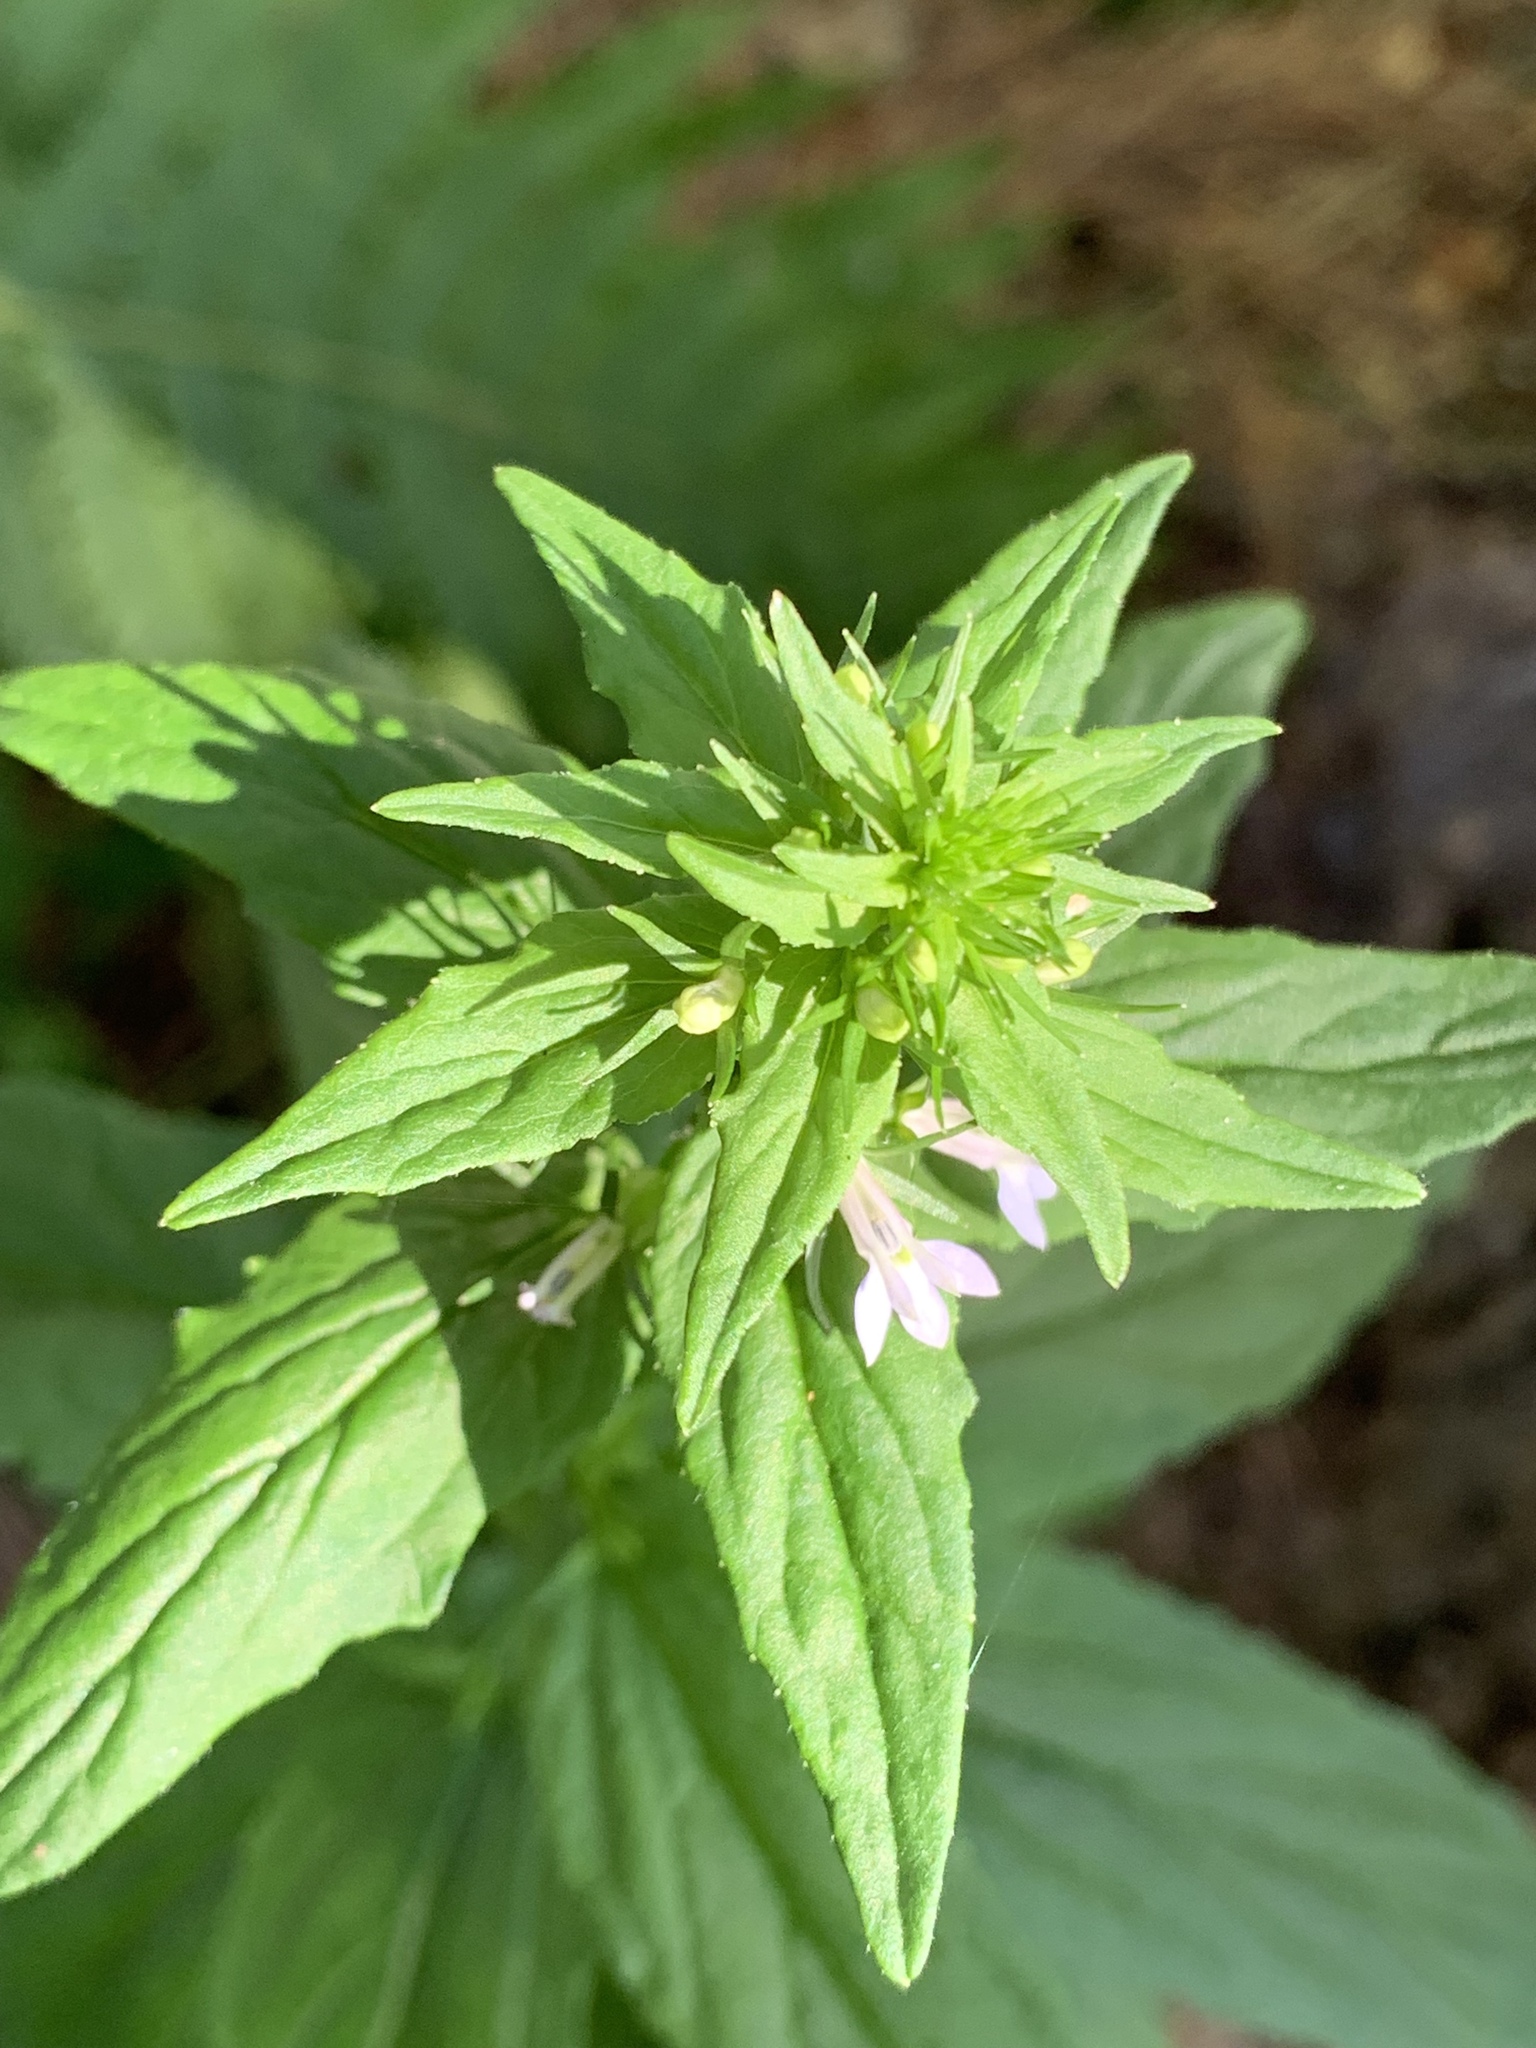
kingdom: Plantae
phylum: Tracheophyta
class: Magnoliopsida
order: Asterales
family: Campanulaceae
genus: Lobelia
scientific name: Lobelia inflata
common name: Indian tobacco
